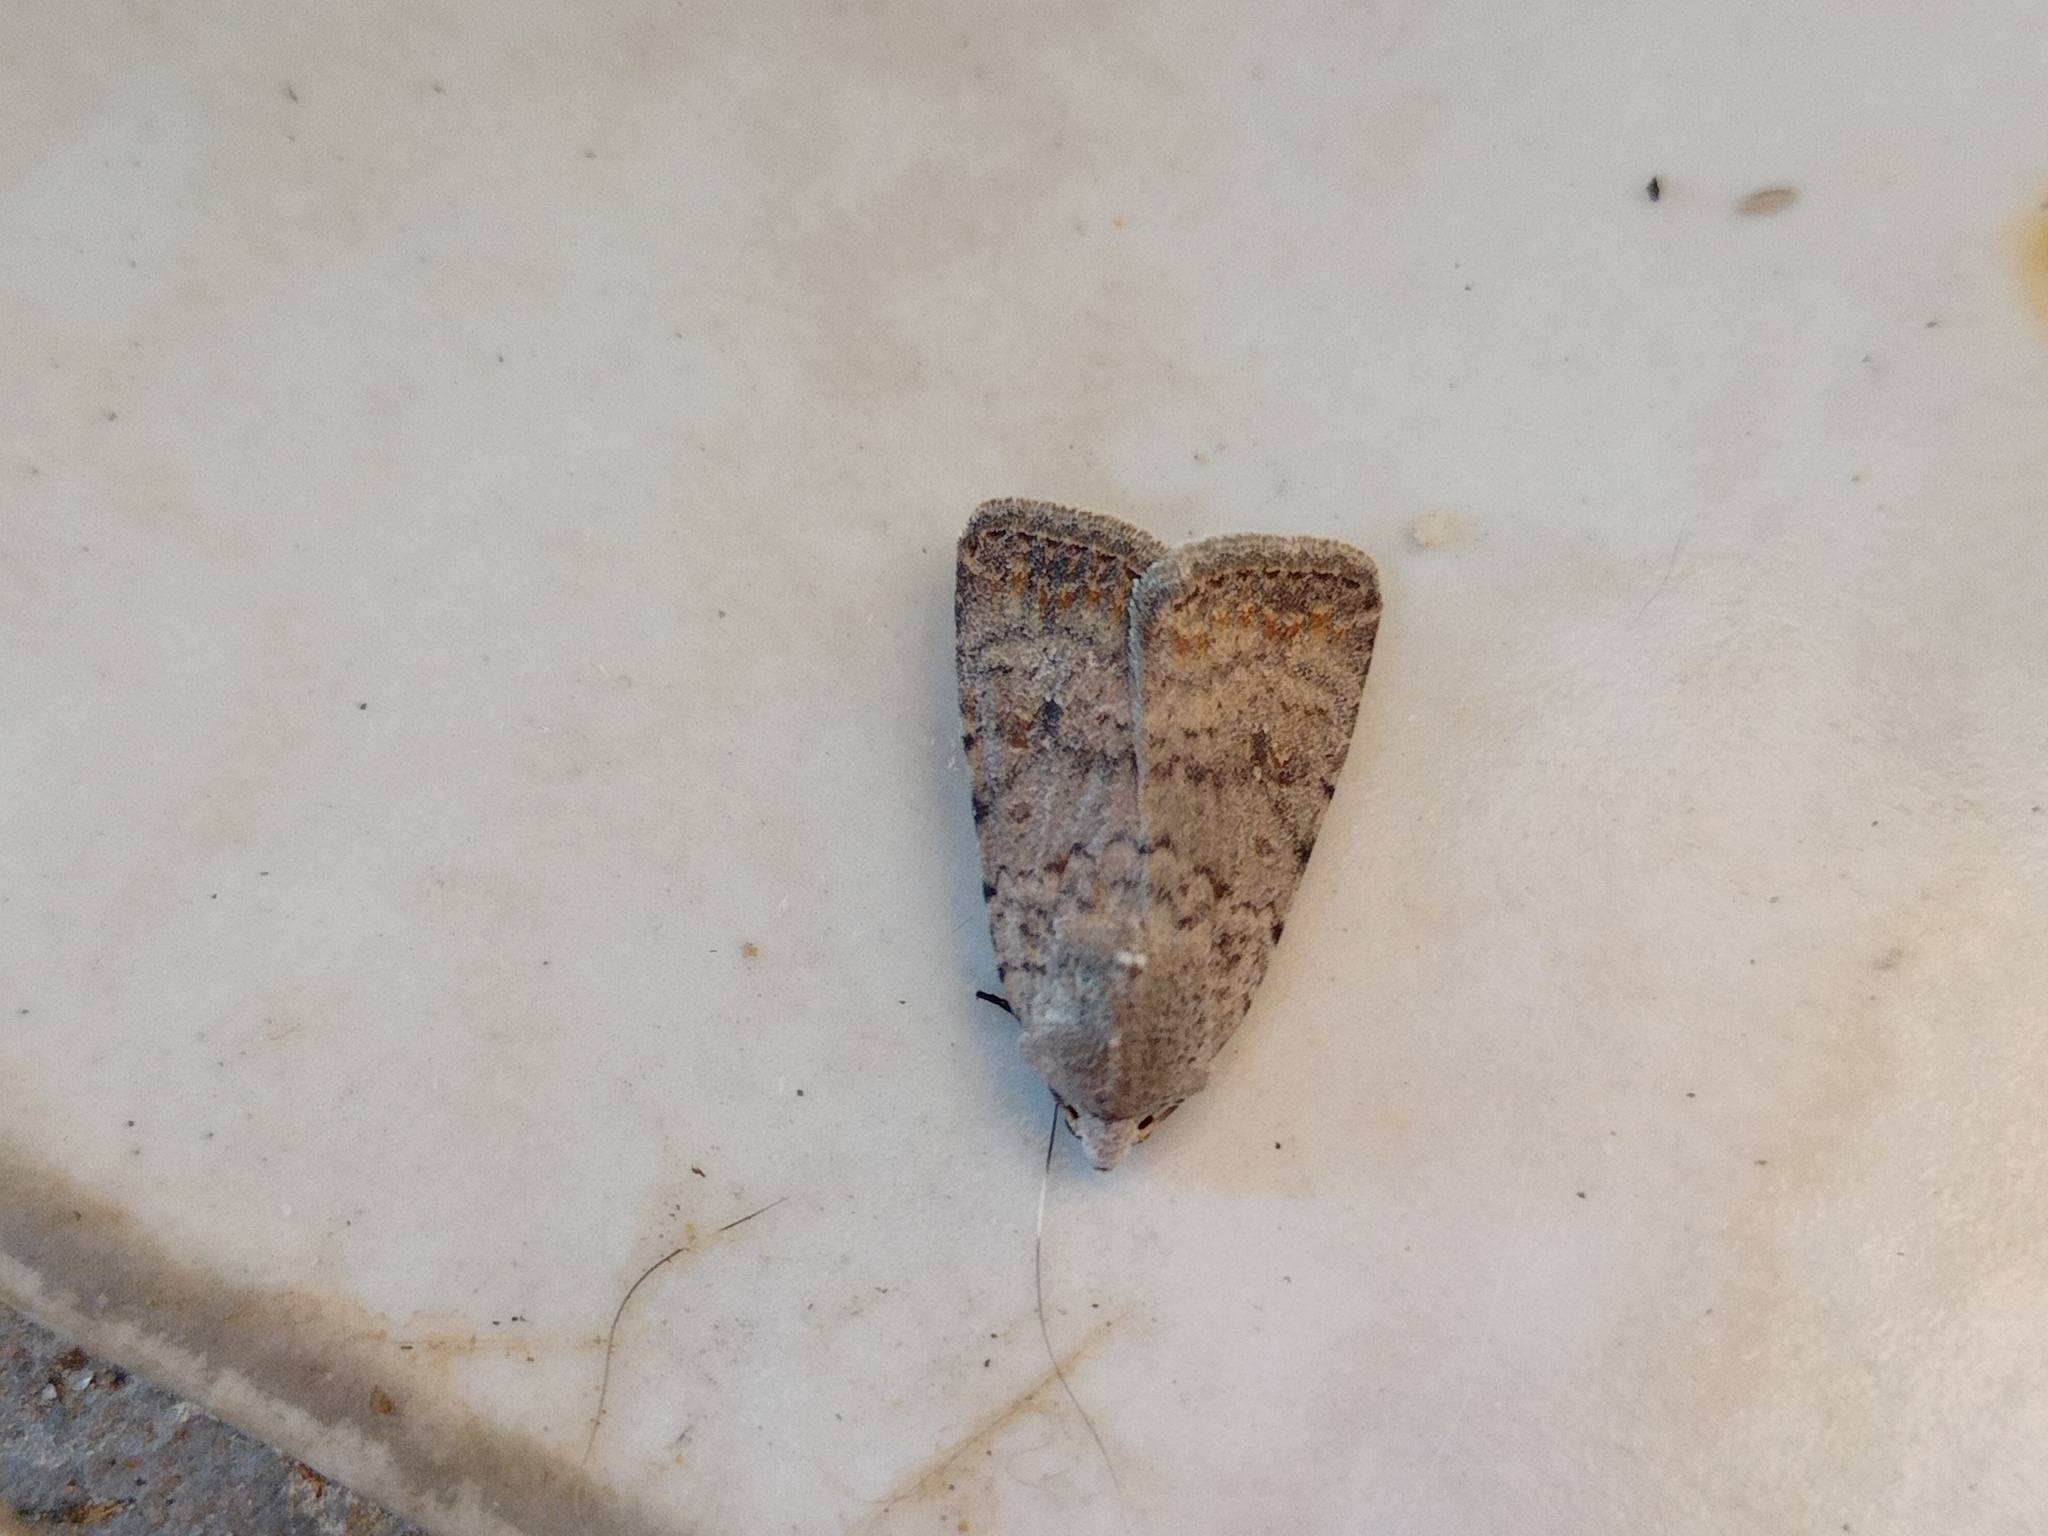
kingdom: Animalia
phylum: Arthropoda
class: Insecta
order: Lepidoptera
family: Noctuidae
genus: Caradrina
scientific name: Caradrina clavipalpis
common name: Pale mottled willow
